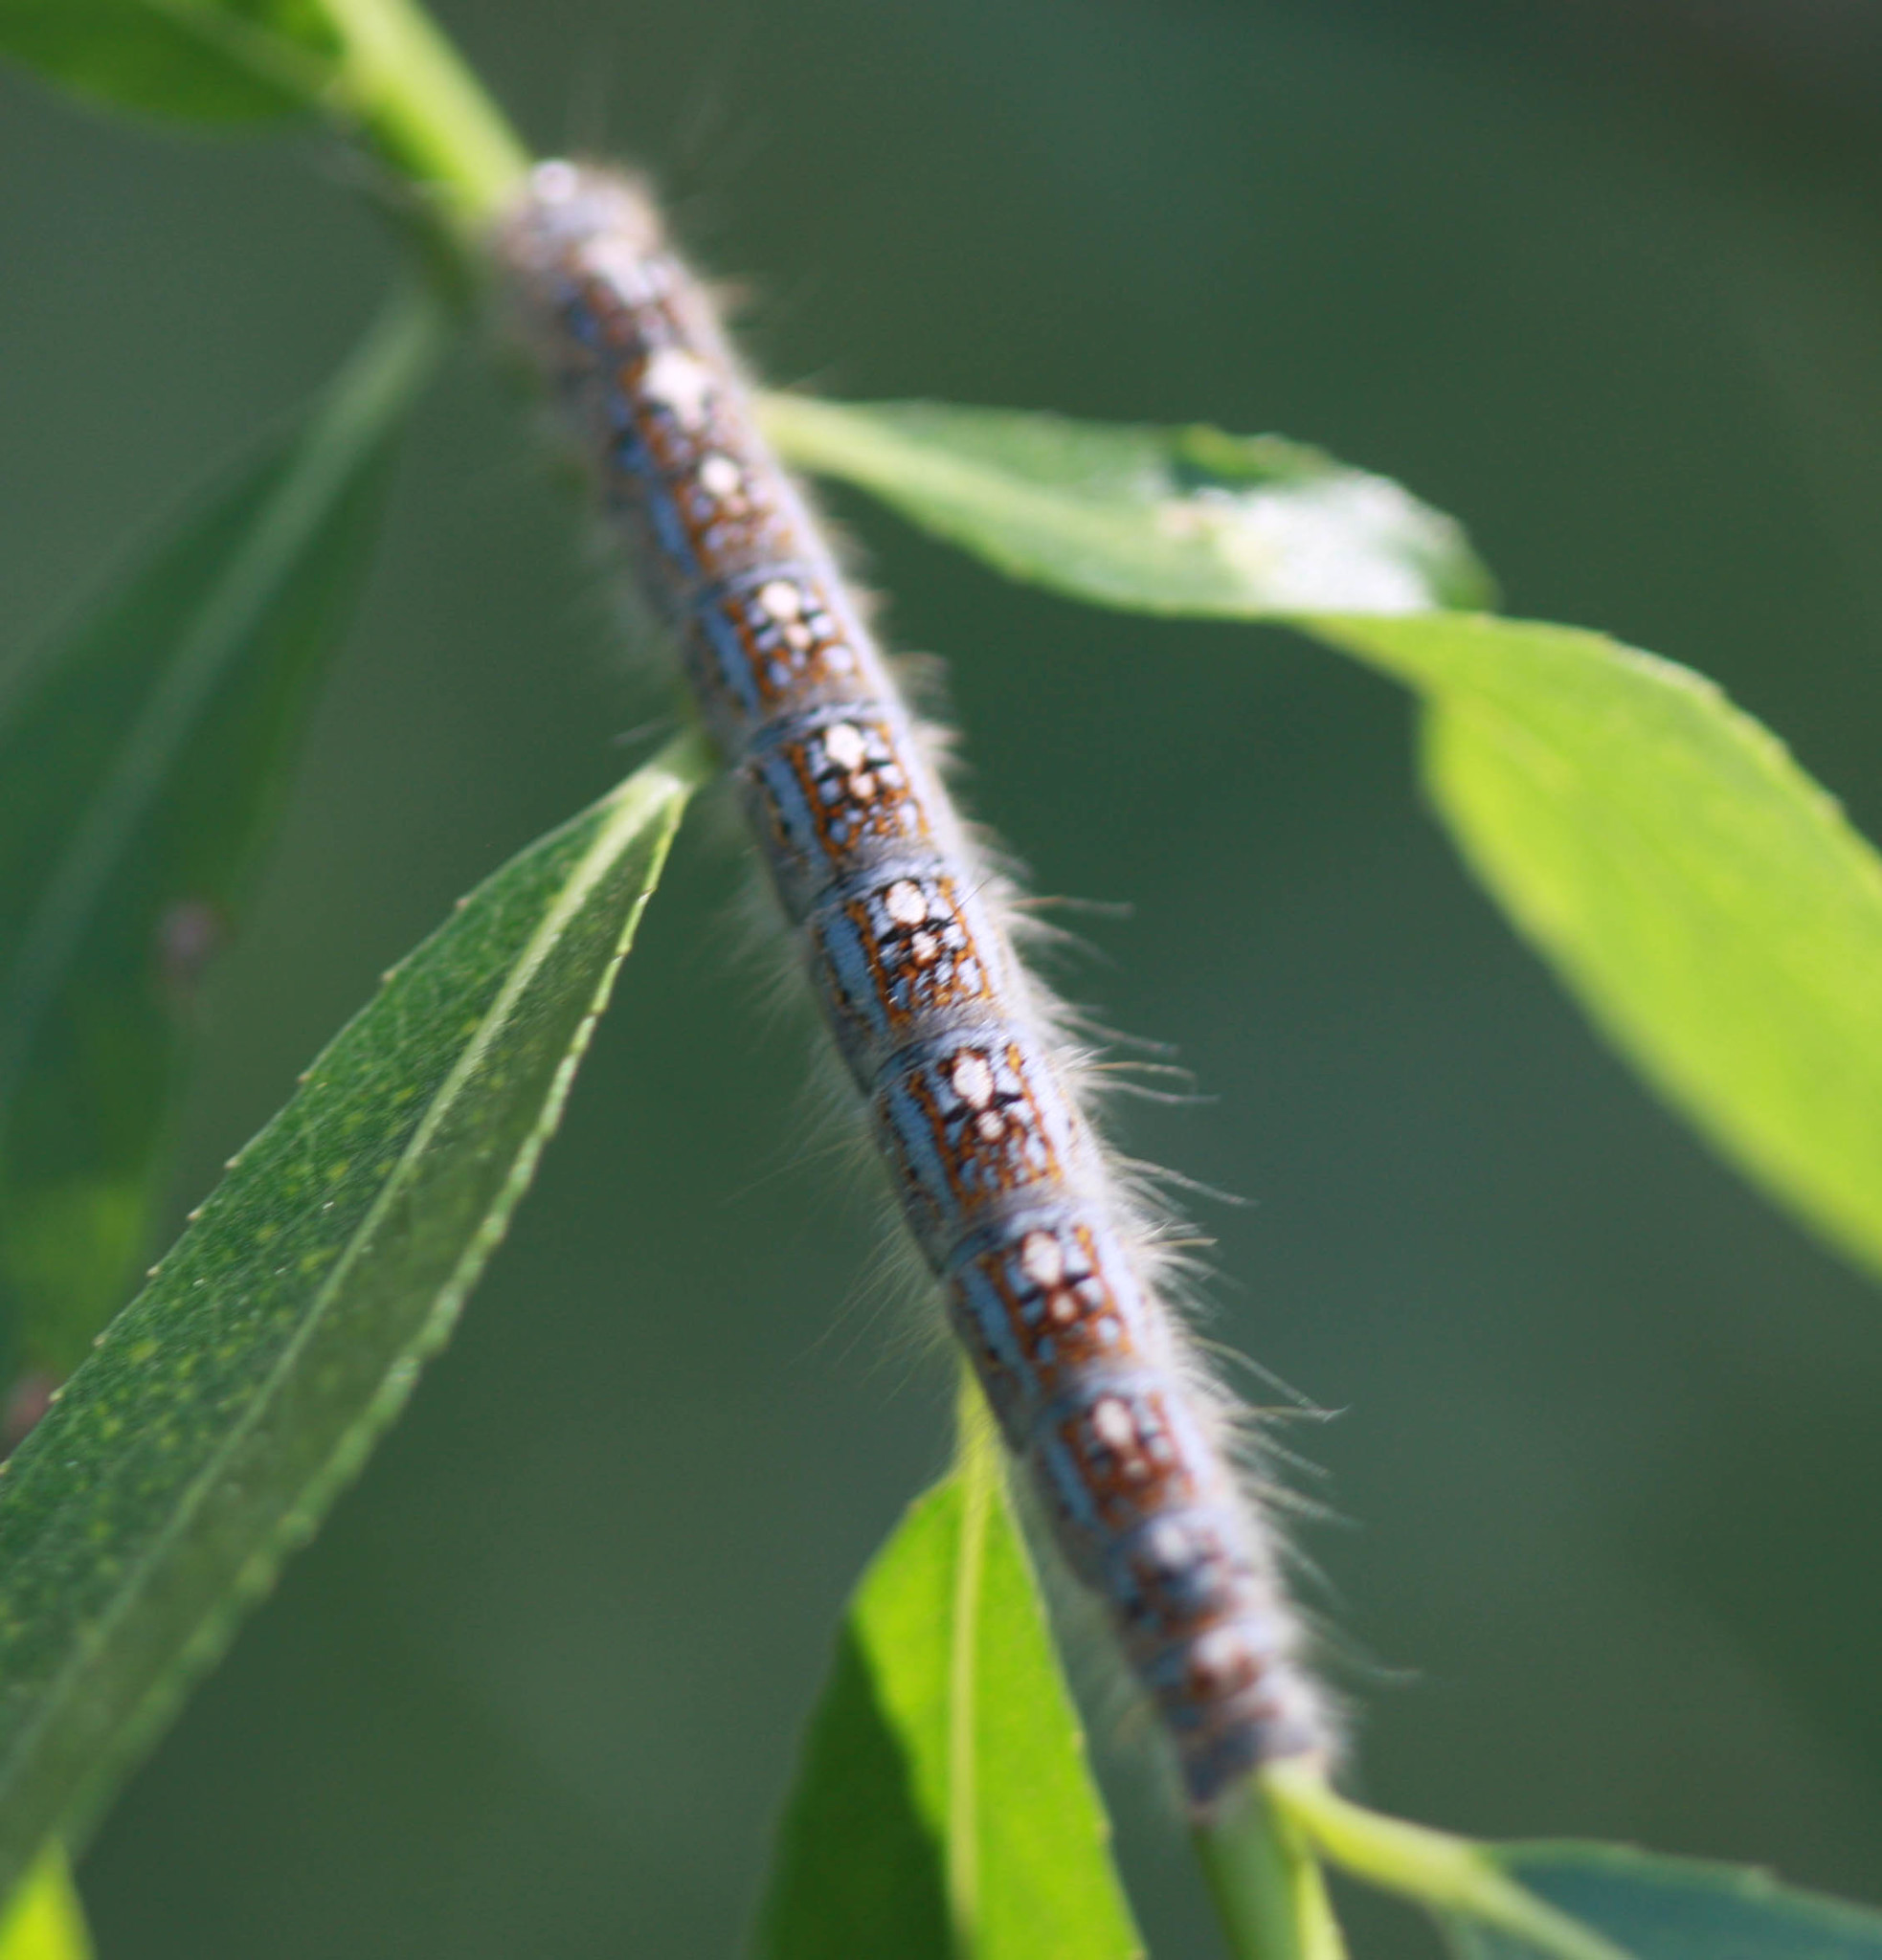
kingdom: Animalia
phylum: Arthropoda
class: Insecta
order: Lepidoptera
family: Lasiocampidae
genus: Malacosoma
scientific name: Malacosoma disstria
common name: Forest tent caterpillar
